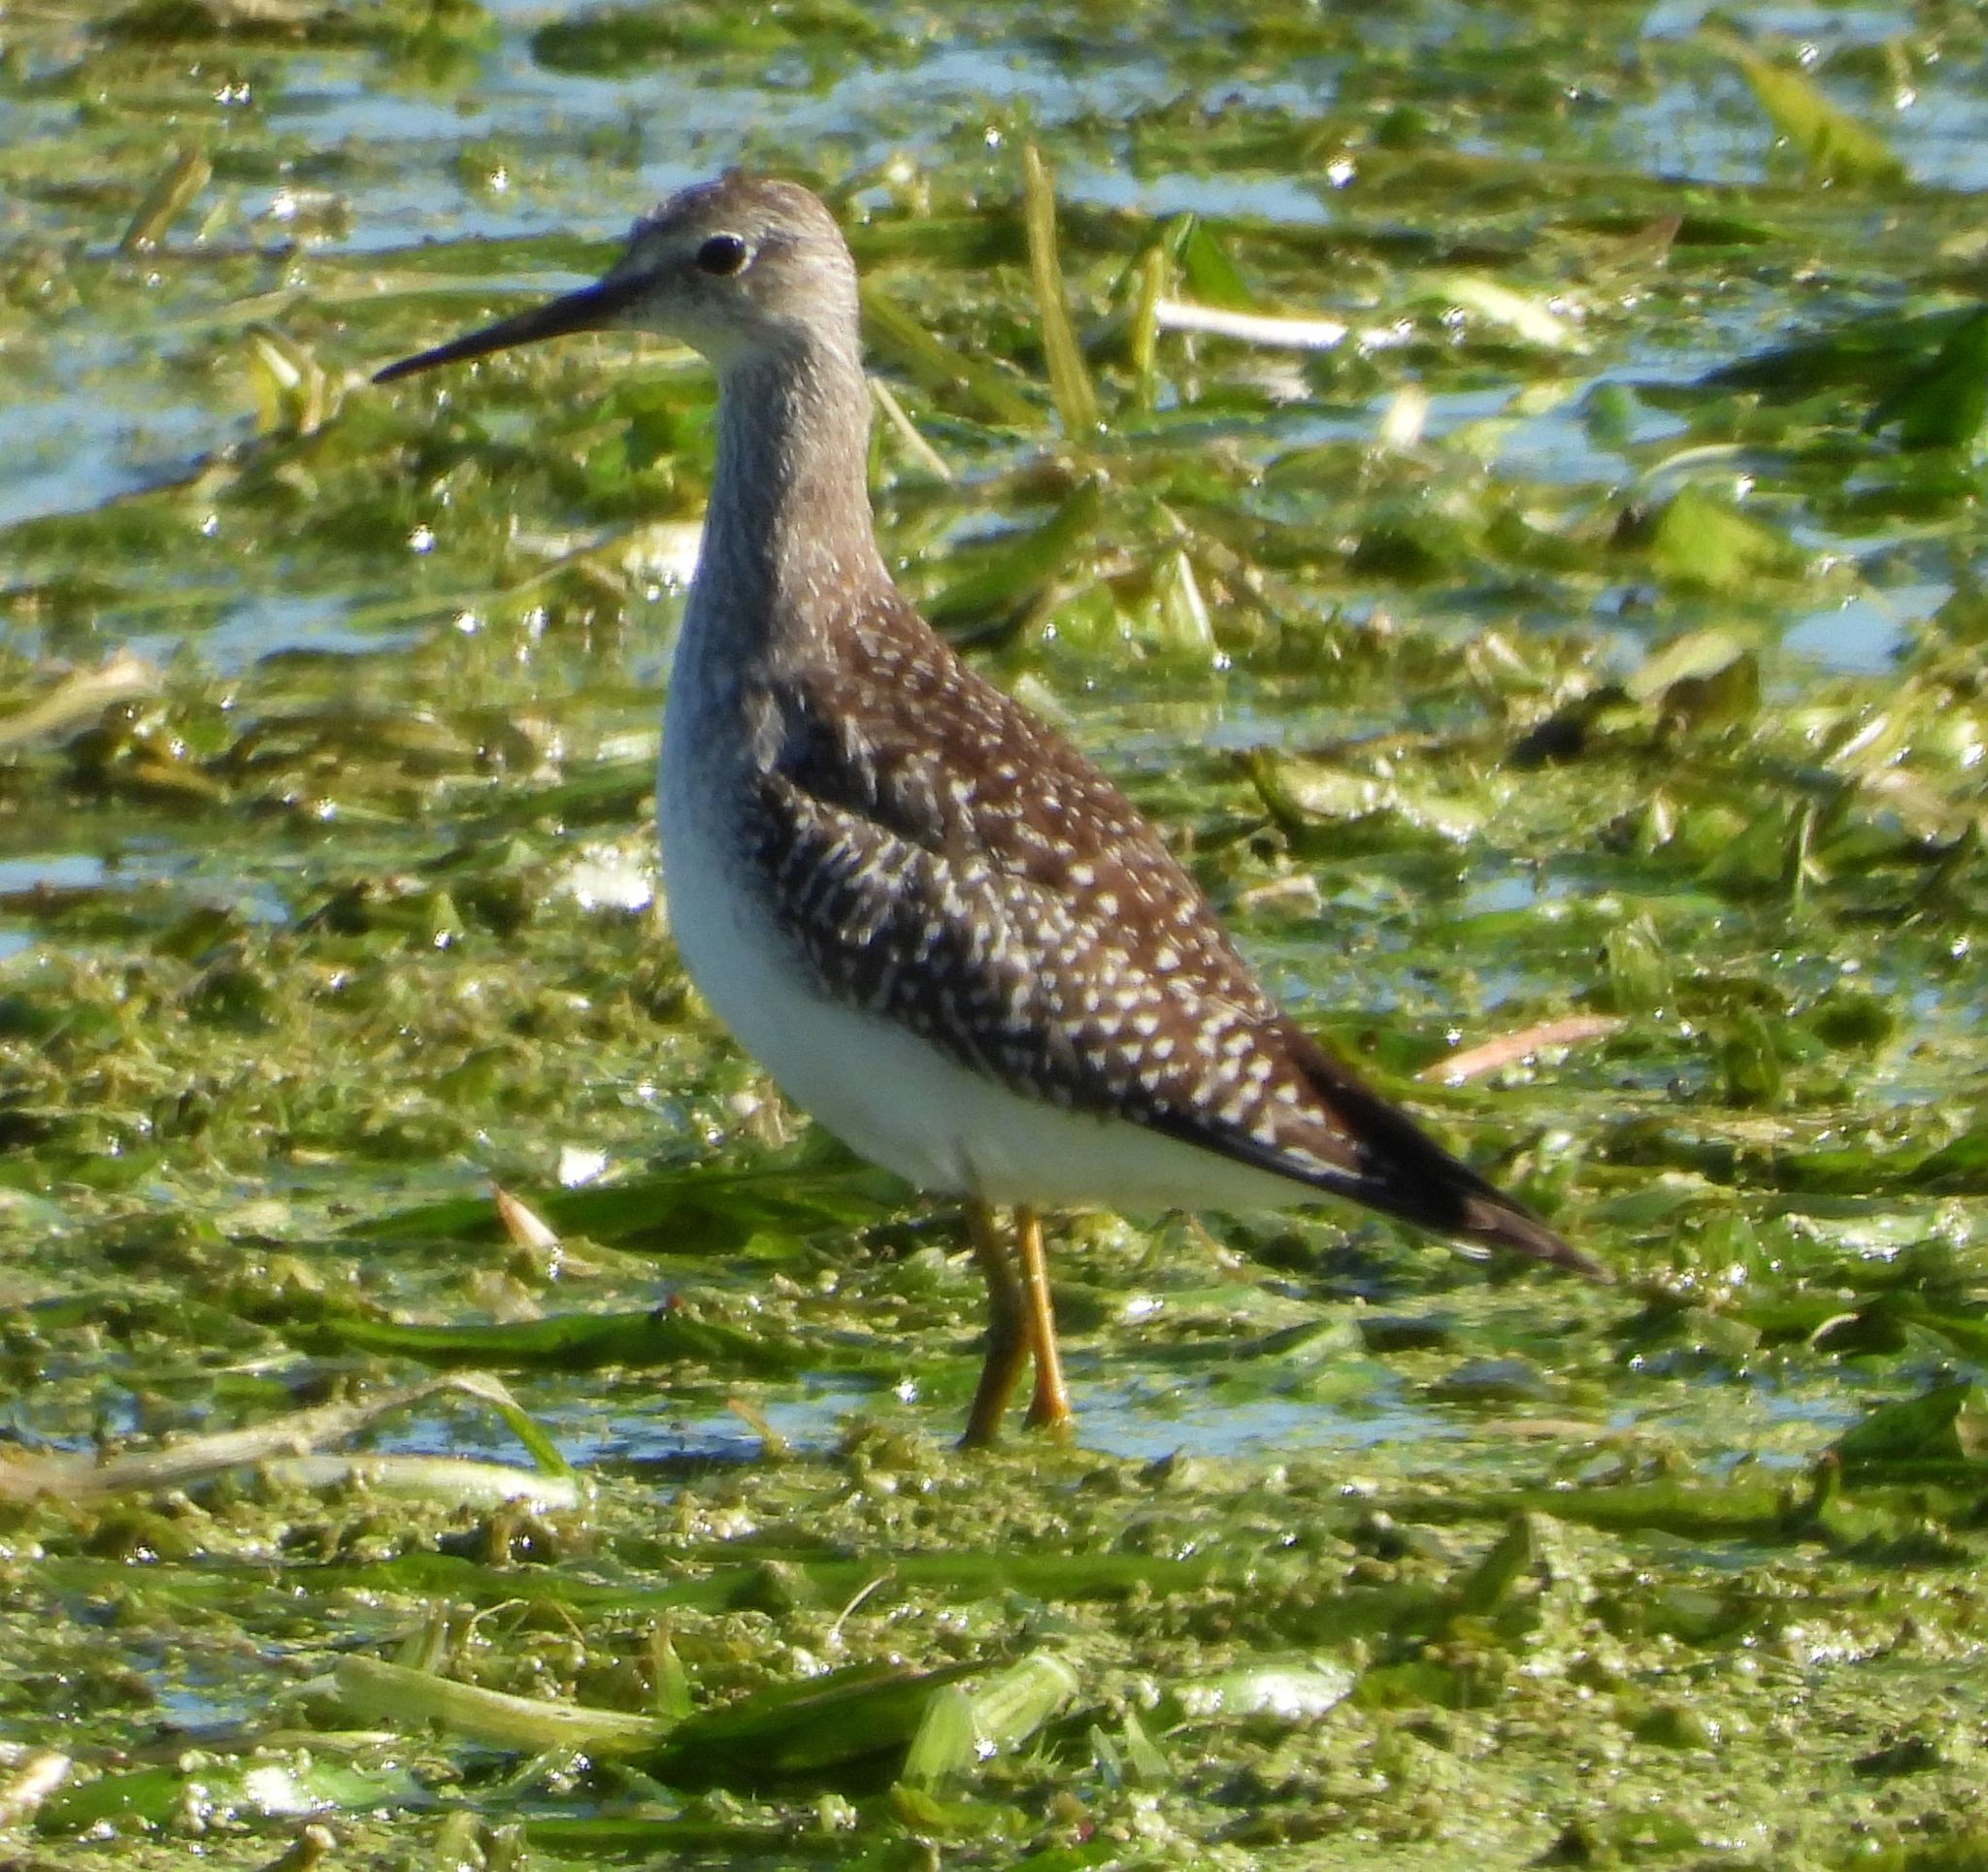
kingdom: Animalia
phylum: Chordata
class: Aves
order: Charadriiformes
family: Scolopacidae
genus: Tringa
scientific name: Tringa flavipes
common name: Lesser yellowlegs
